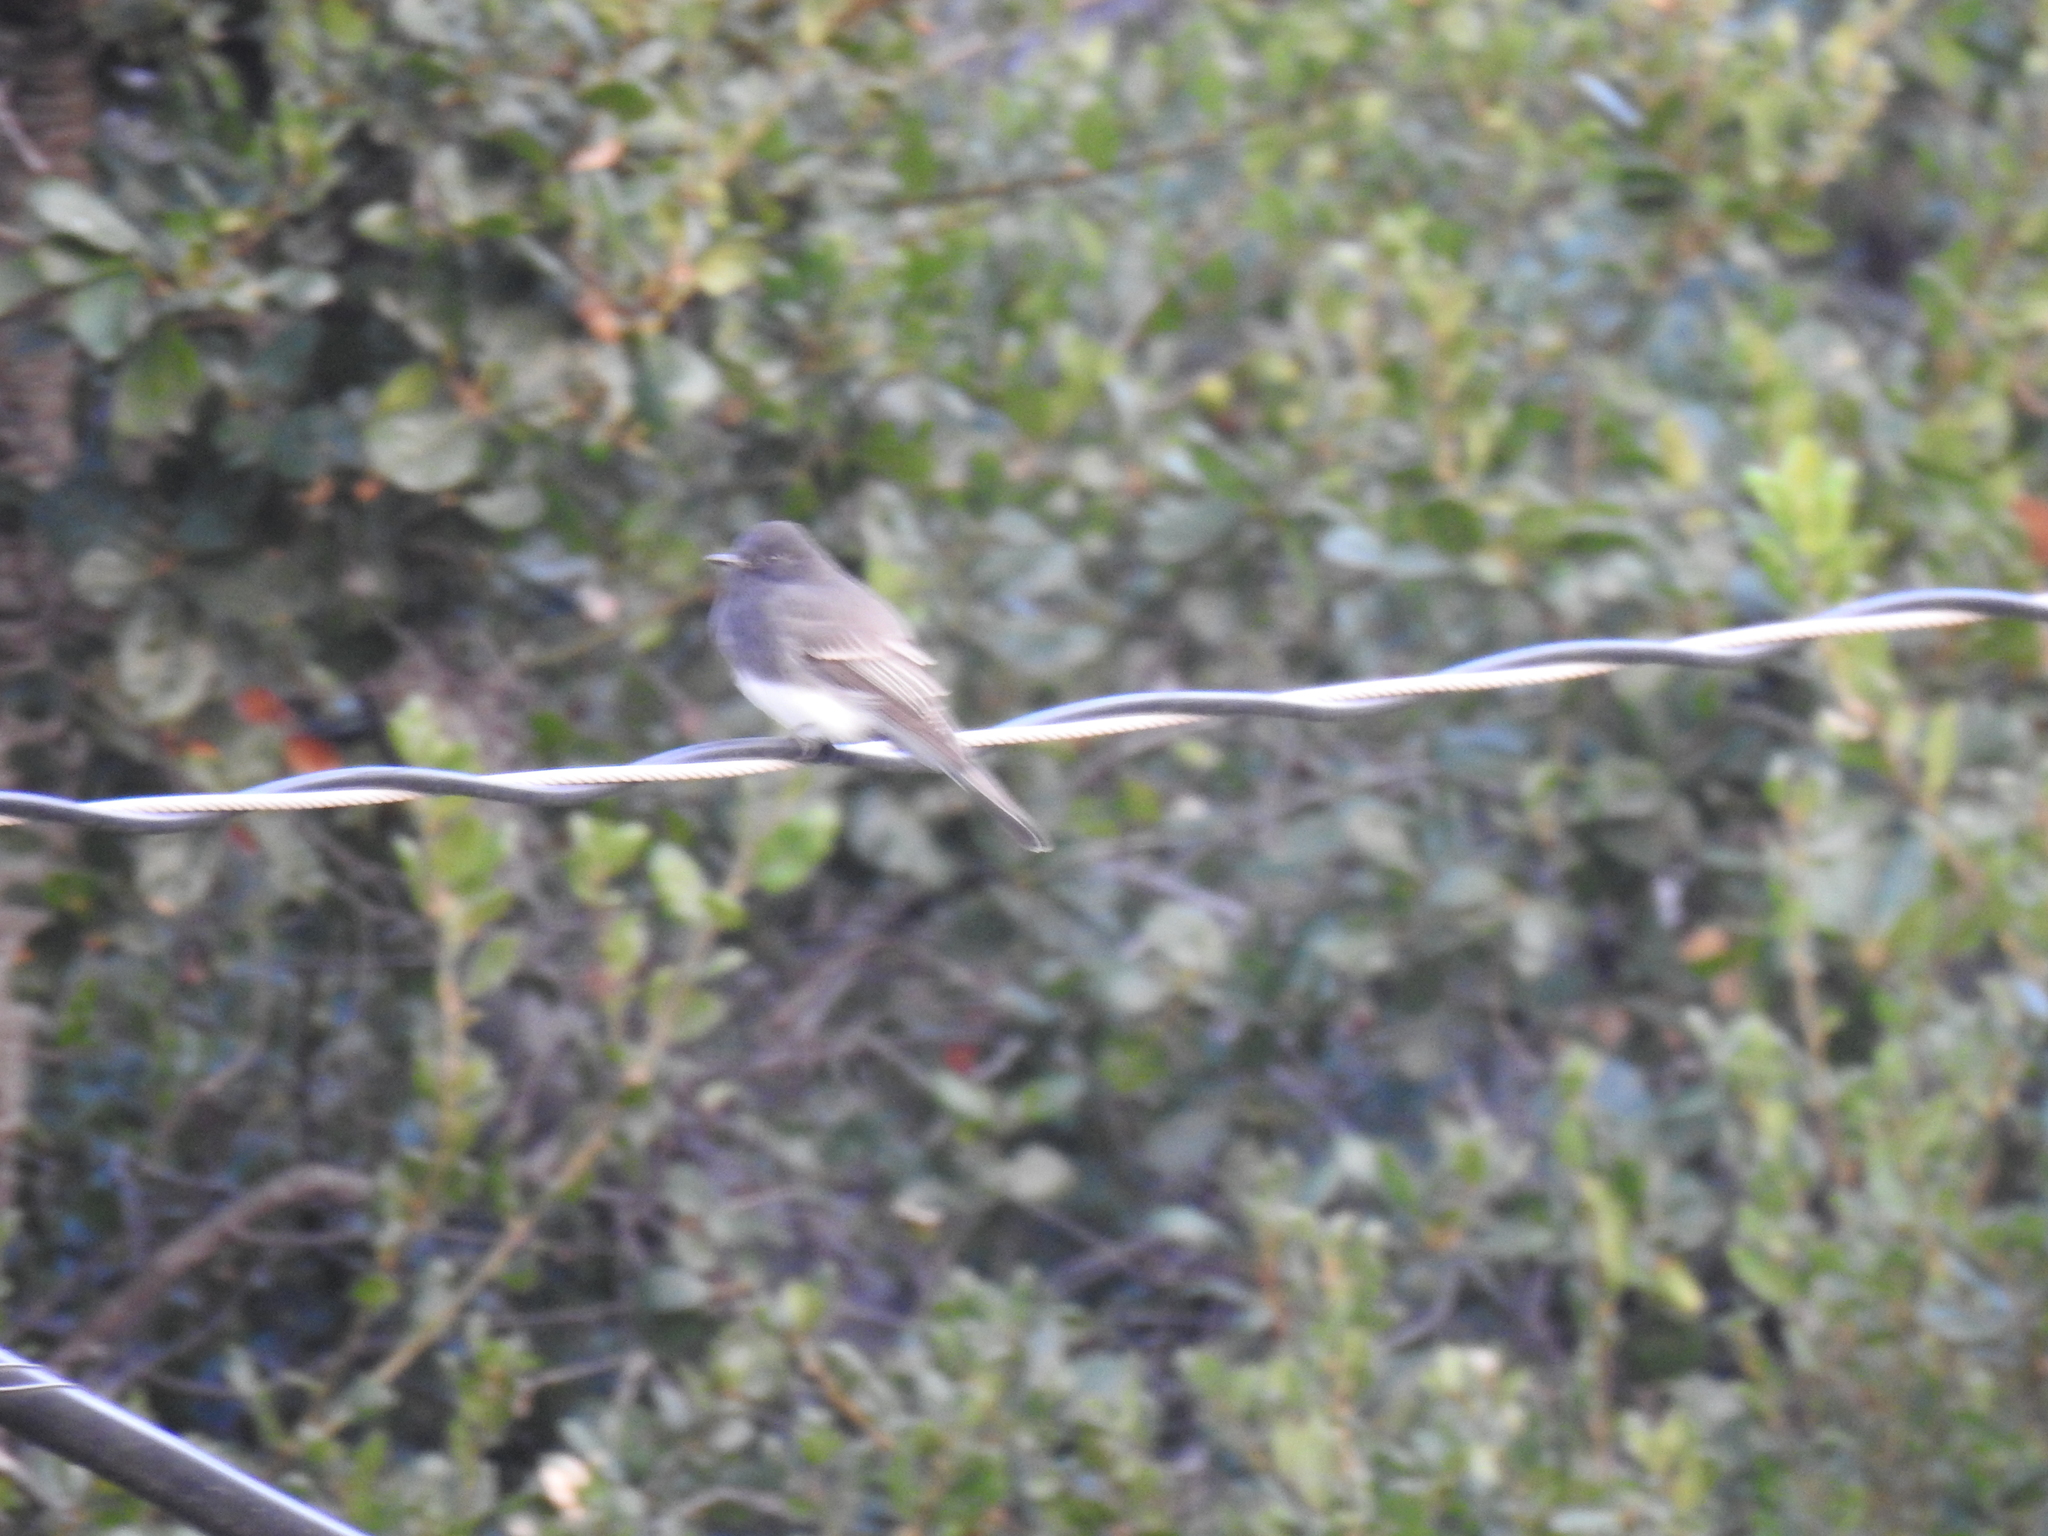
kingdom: Animalia
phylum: Chordata
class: Aves
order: Passeriformes
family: Tyrannidae
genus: Sayornis
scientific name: Sayornis nigricans
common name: Black phoebe
